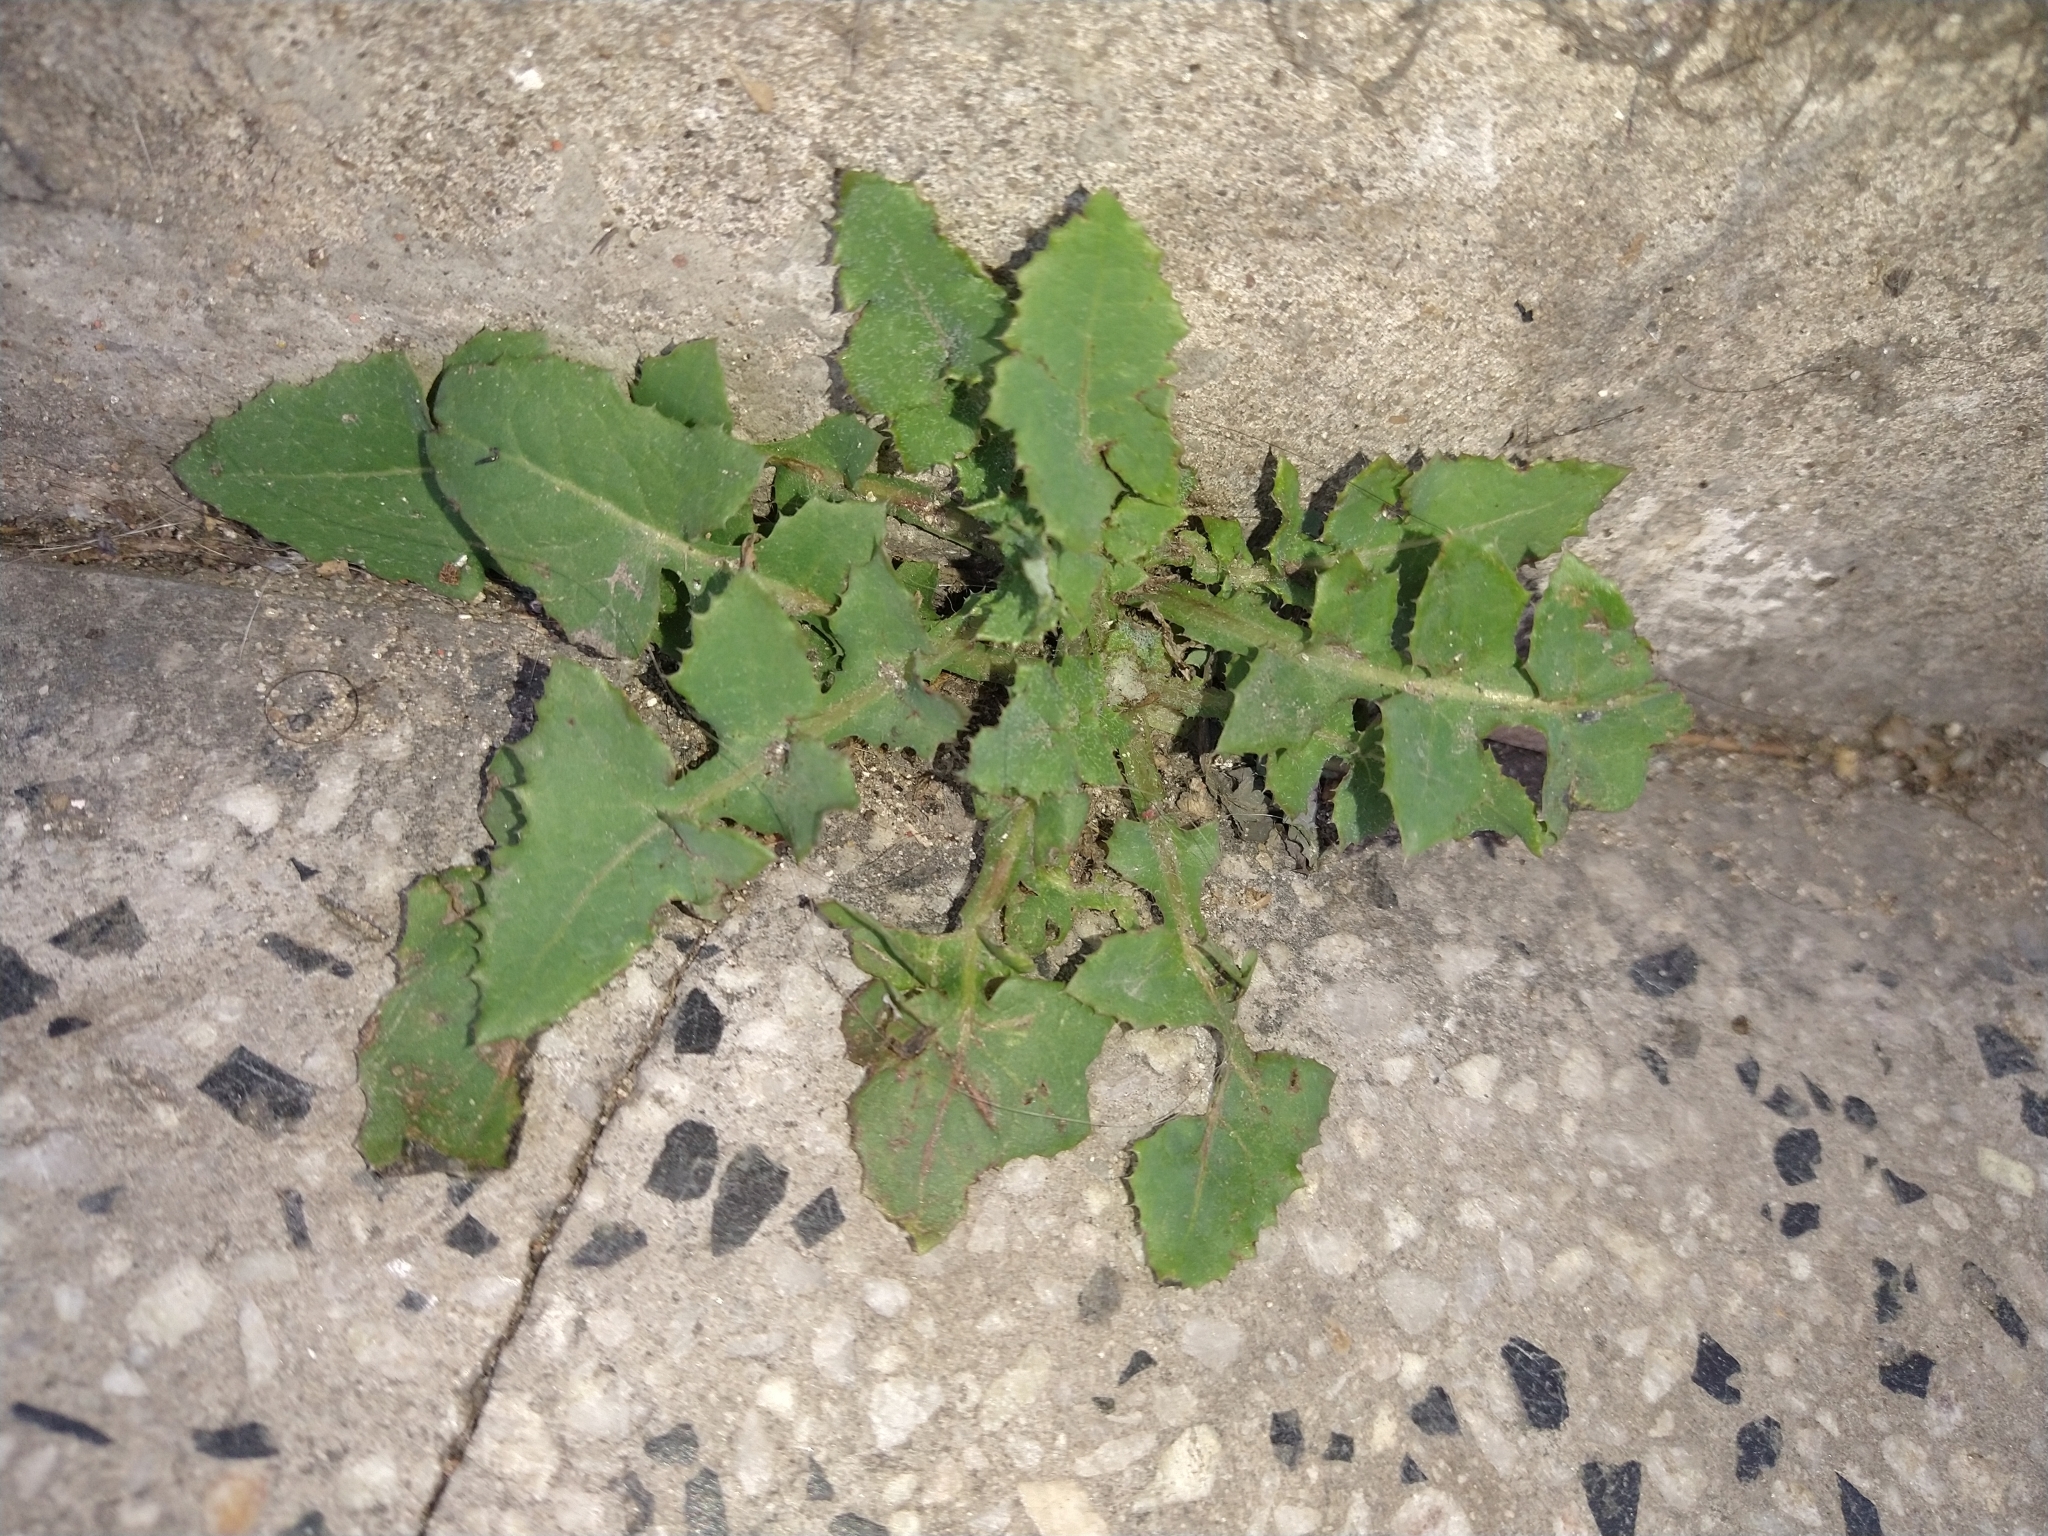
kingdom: Plantae
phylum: Tracheophyta
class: Magnoliopsida
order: Asterales
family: Asteraceae
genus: Sonchus
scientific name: Sonchus oleraceus
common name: Common sowthistle
